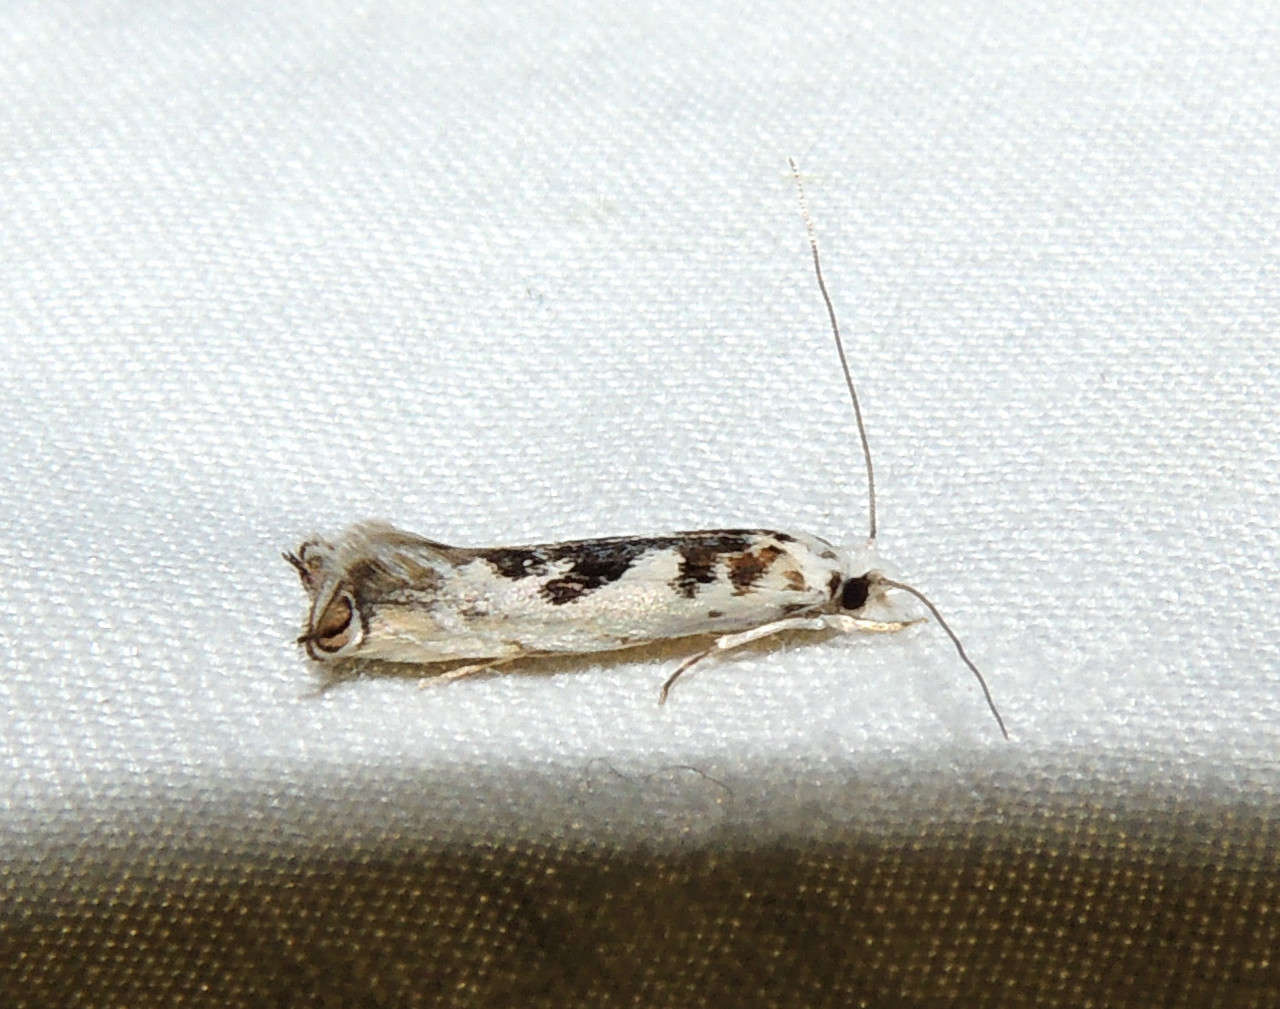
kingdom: Animalia
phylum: Arthropoda
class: Insecta
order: Lepidoptera
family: Tineidae
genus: Erechthias
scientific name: Erechthias mystacinella
